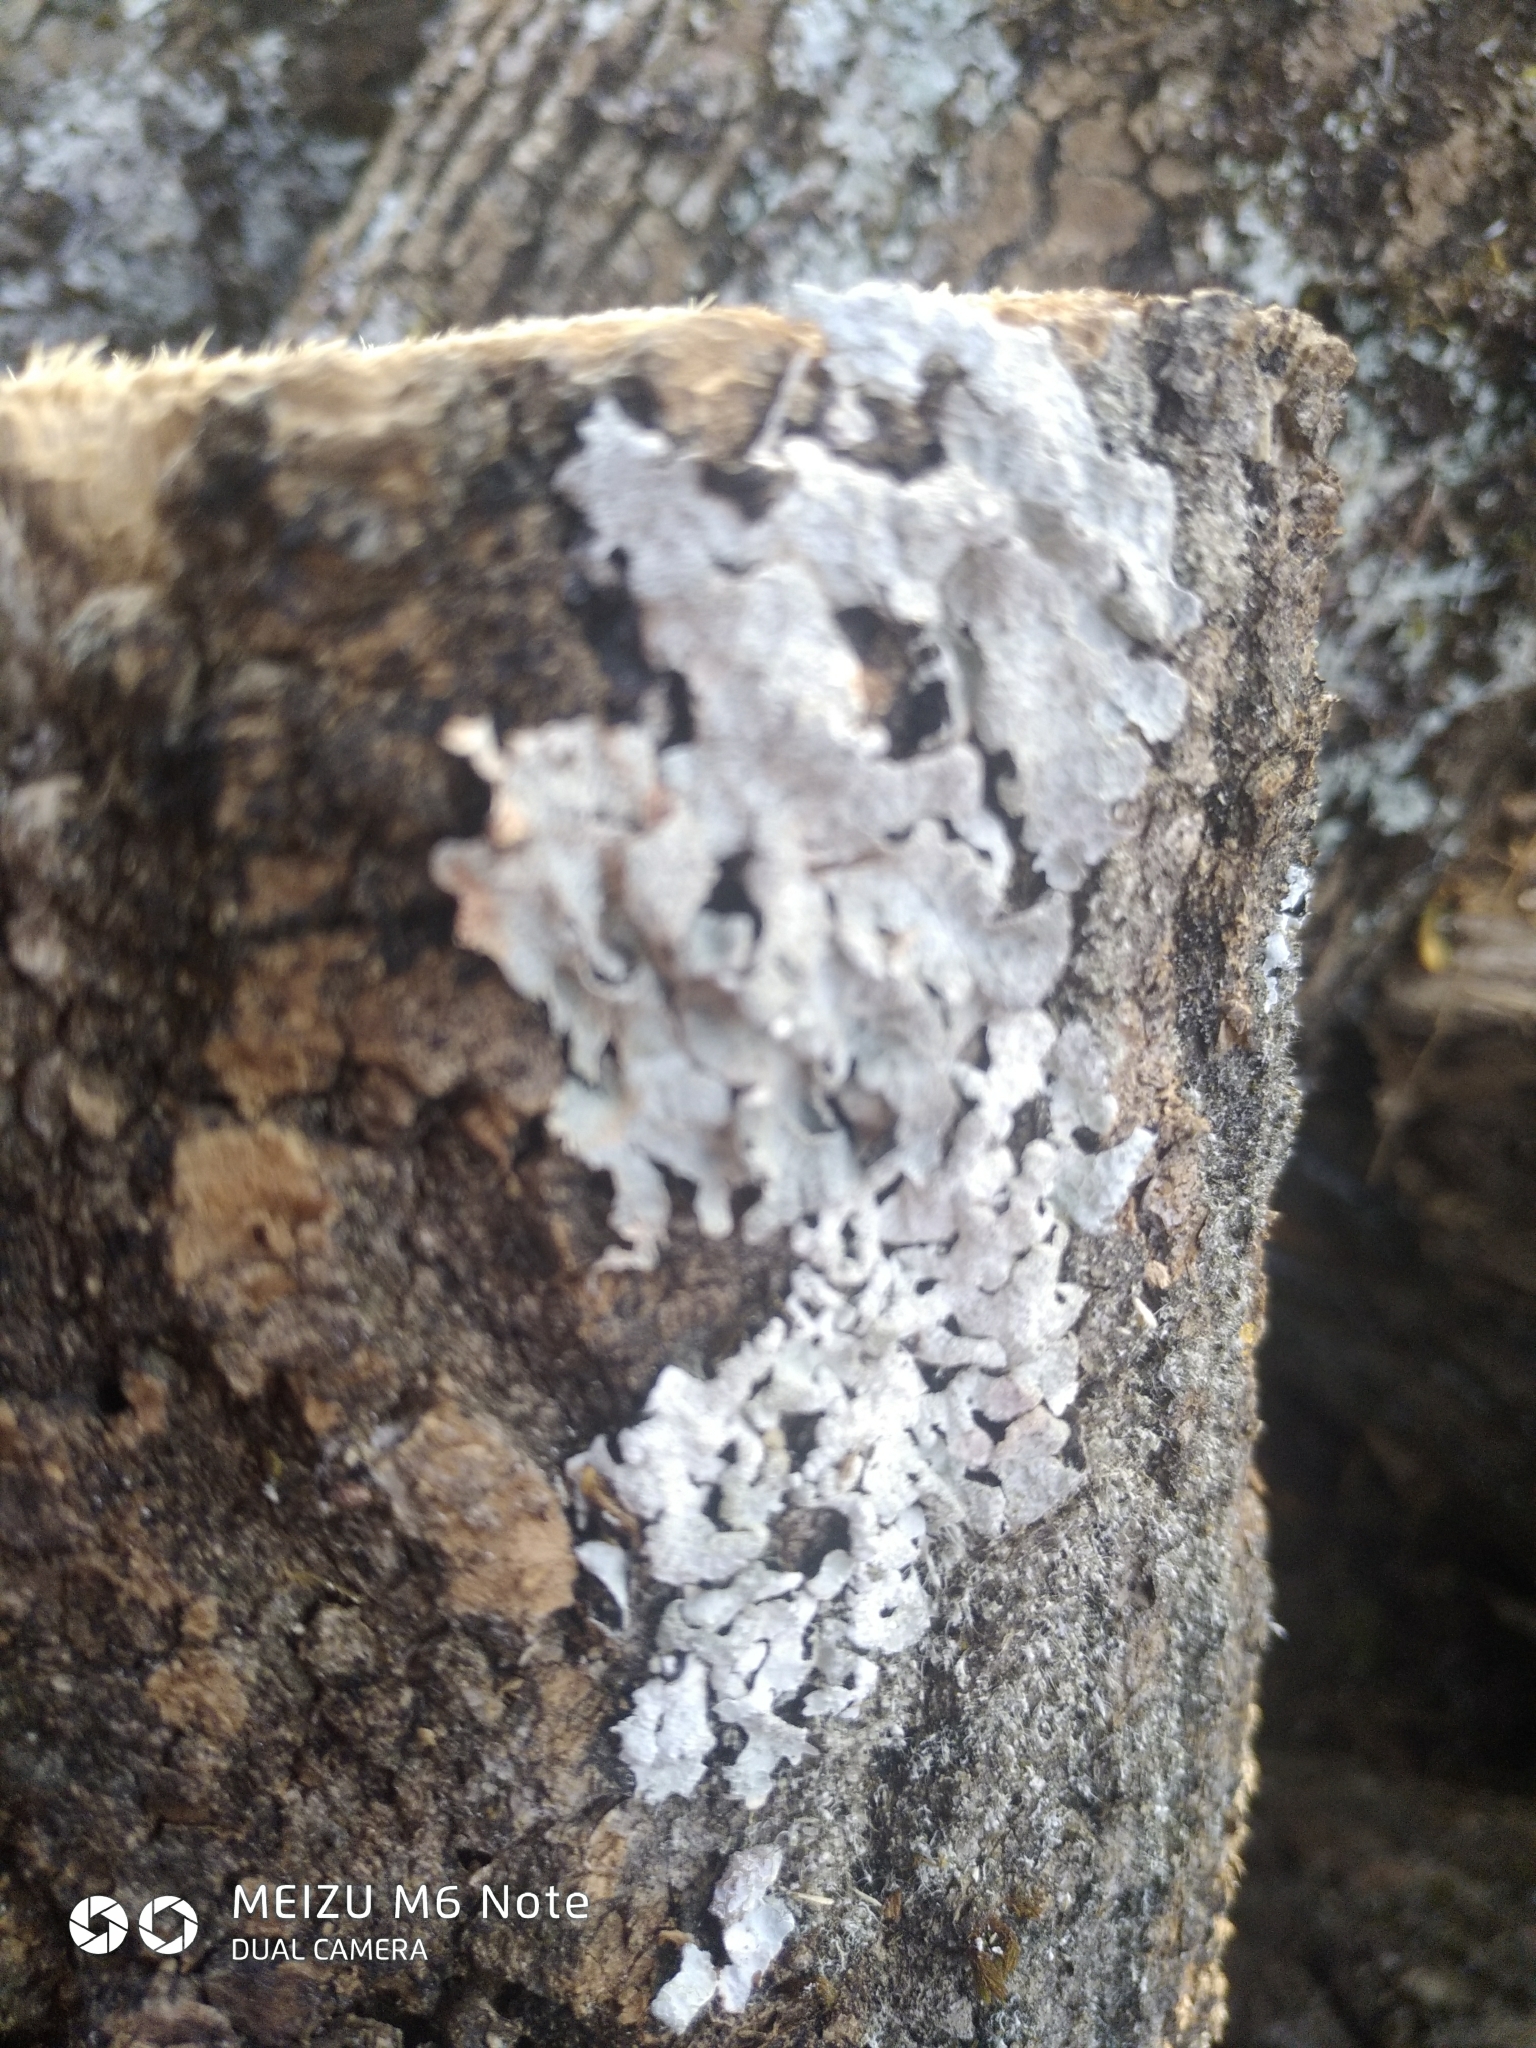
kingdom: Fungi
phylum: Ascomycota
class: Lecanoromycetes
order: Lecanorales
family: Parmeliaceae
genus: Parmelia
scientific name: Parmelia sulcata
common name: Netted shield lichen
